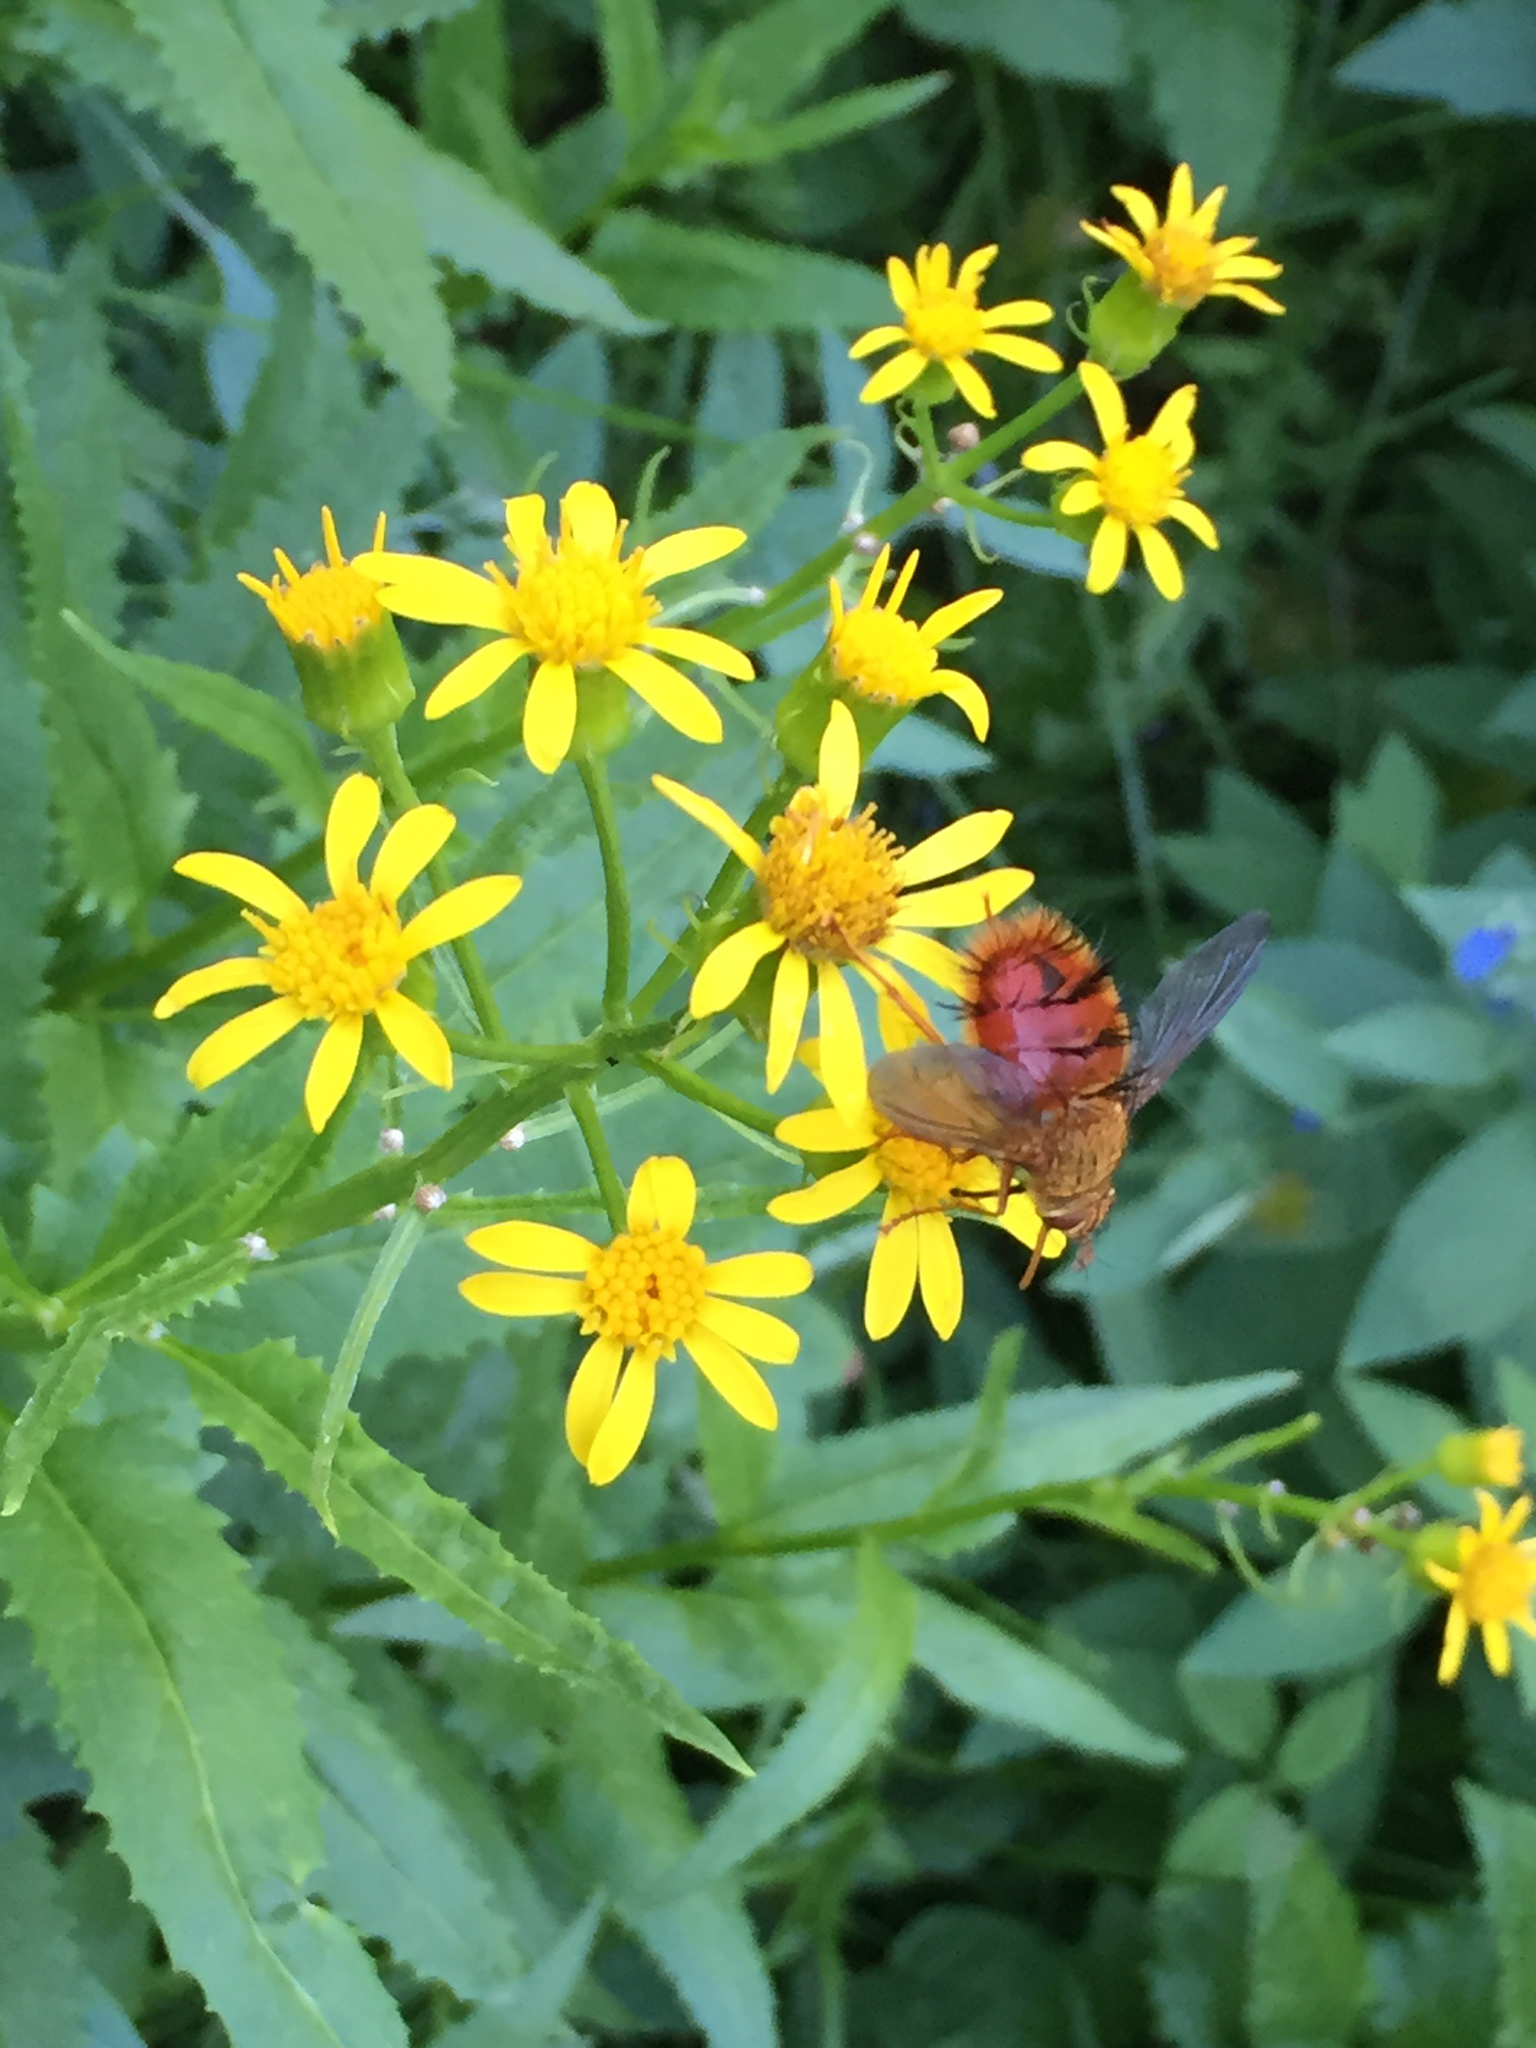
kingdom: Animalia
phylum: Arthropoda
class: Insecta
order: Diptera
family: Tachinidae
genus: Adejeania
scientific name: Adejeania vexatrix
